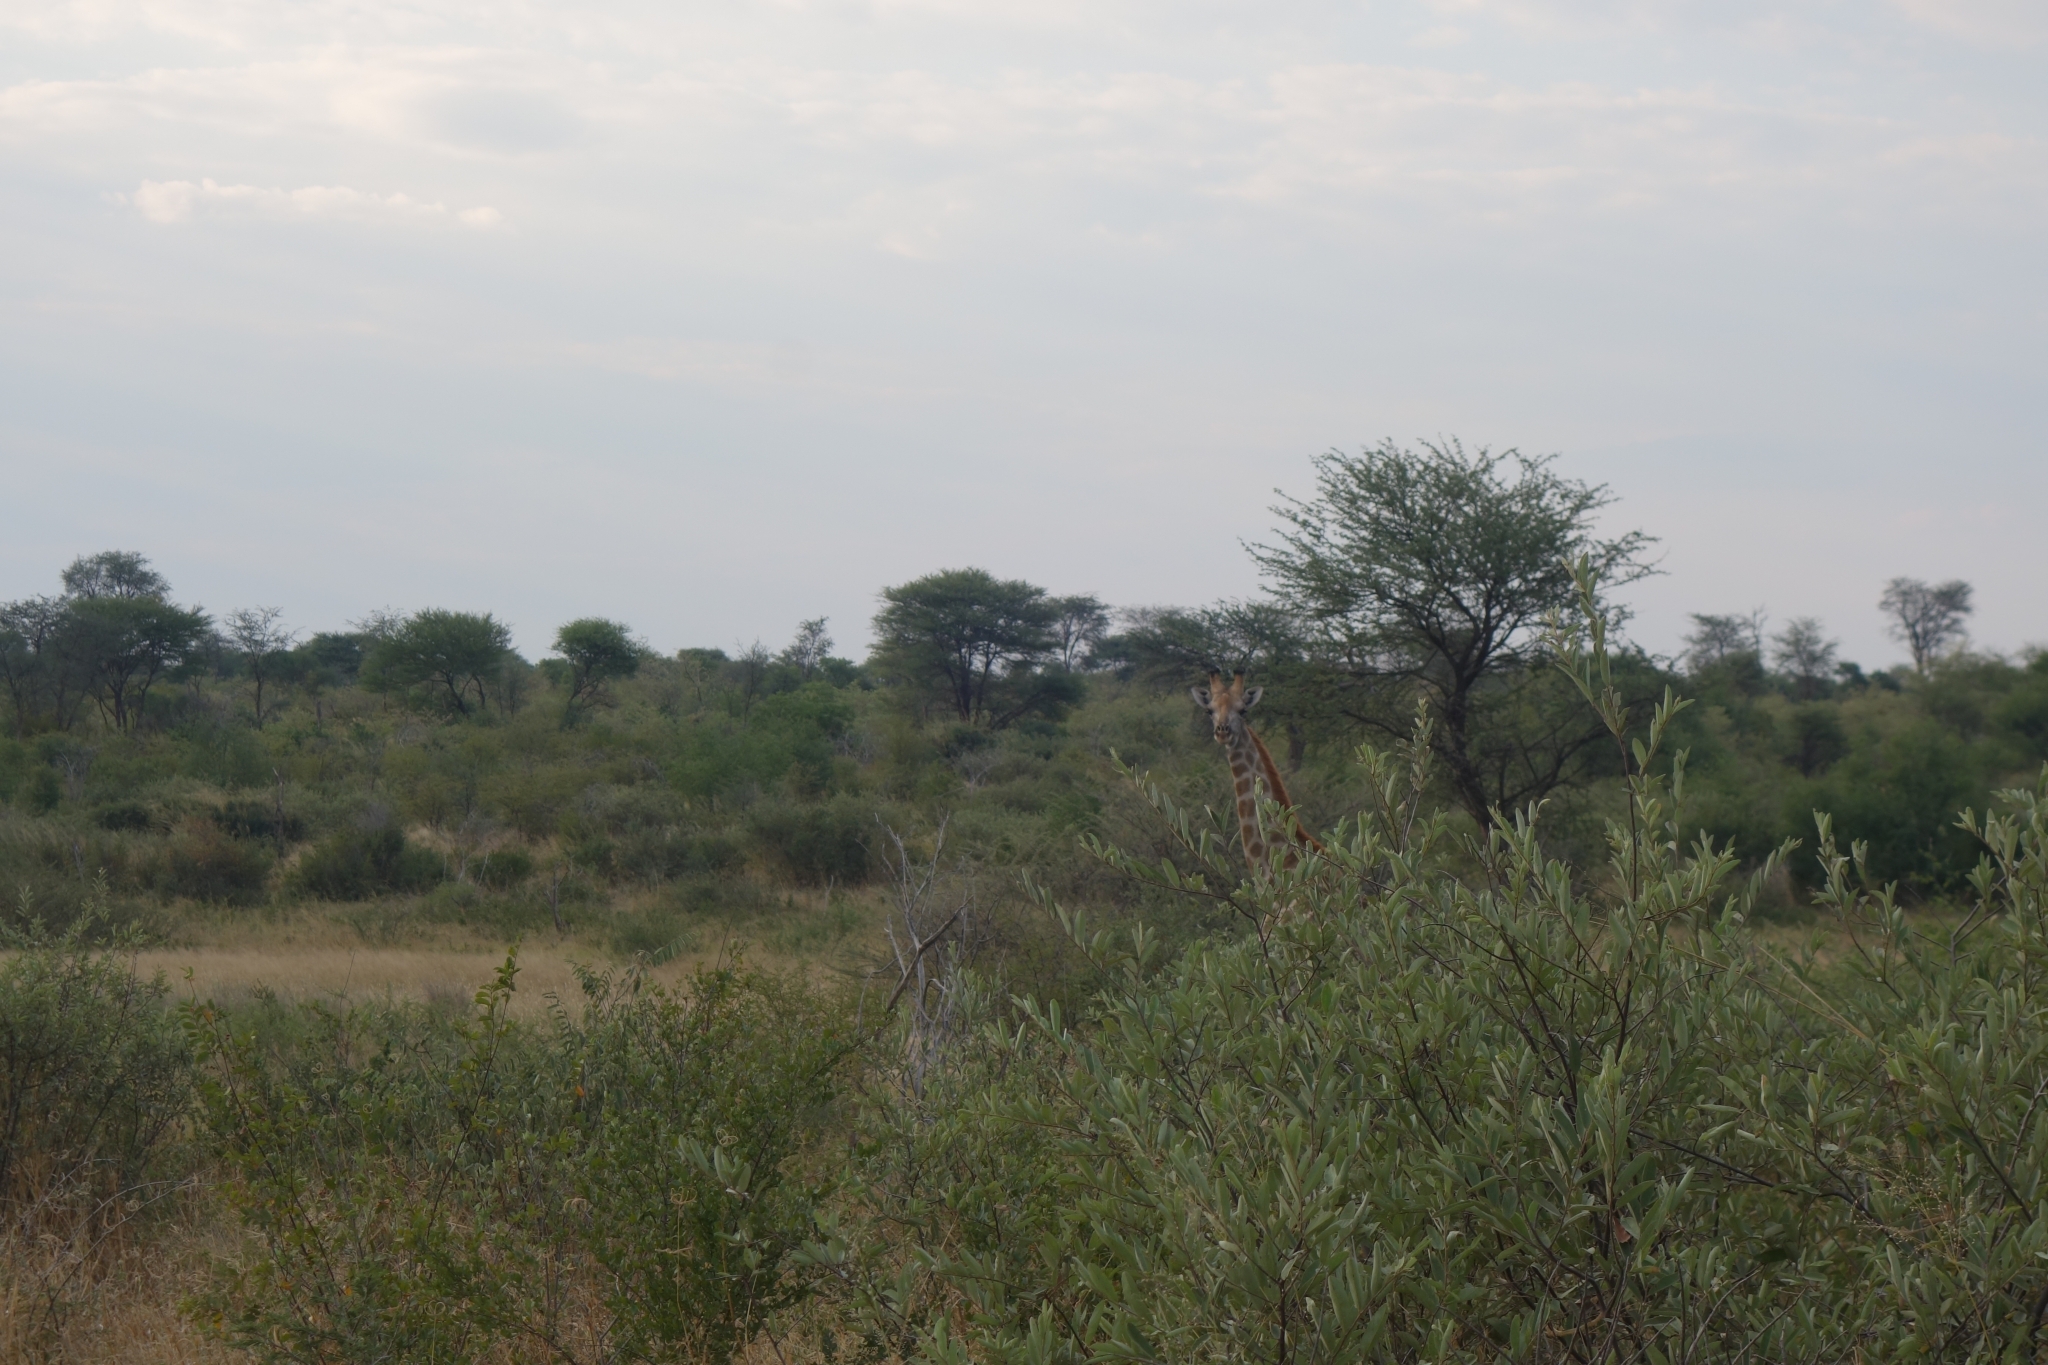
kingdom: Animalia
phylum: Chordata
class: Mammalia
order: Artiodactyla
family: Giraffidae
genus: Giraffa
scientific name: Giraffa giraffa
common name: Southern giraffe
